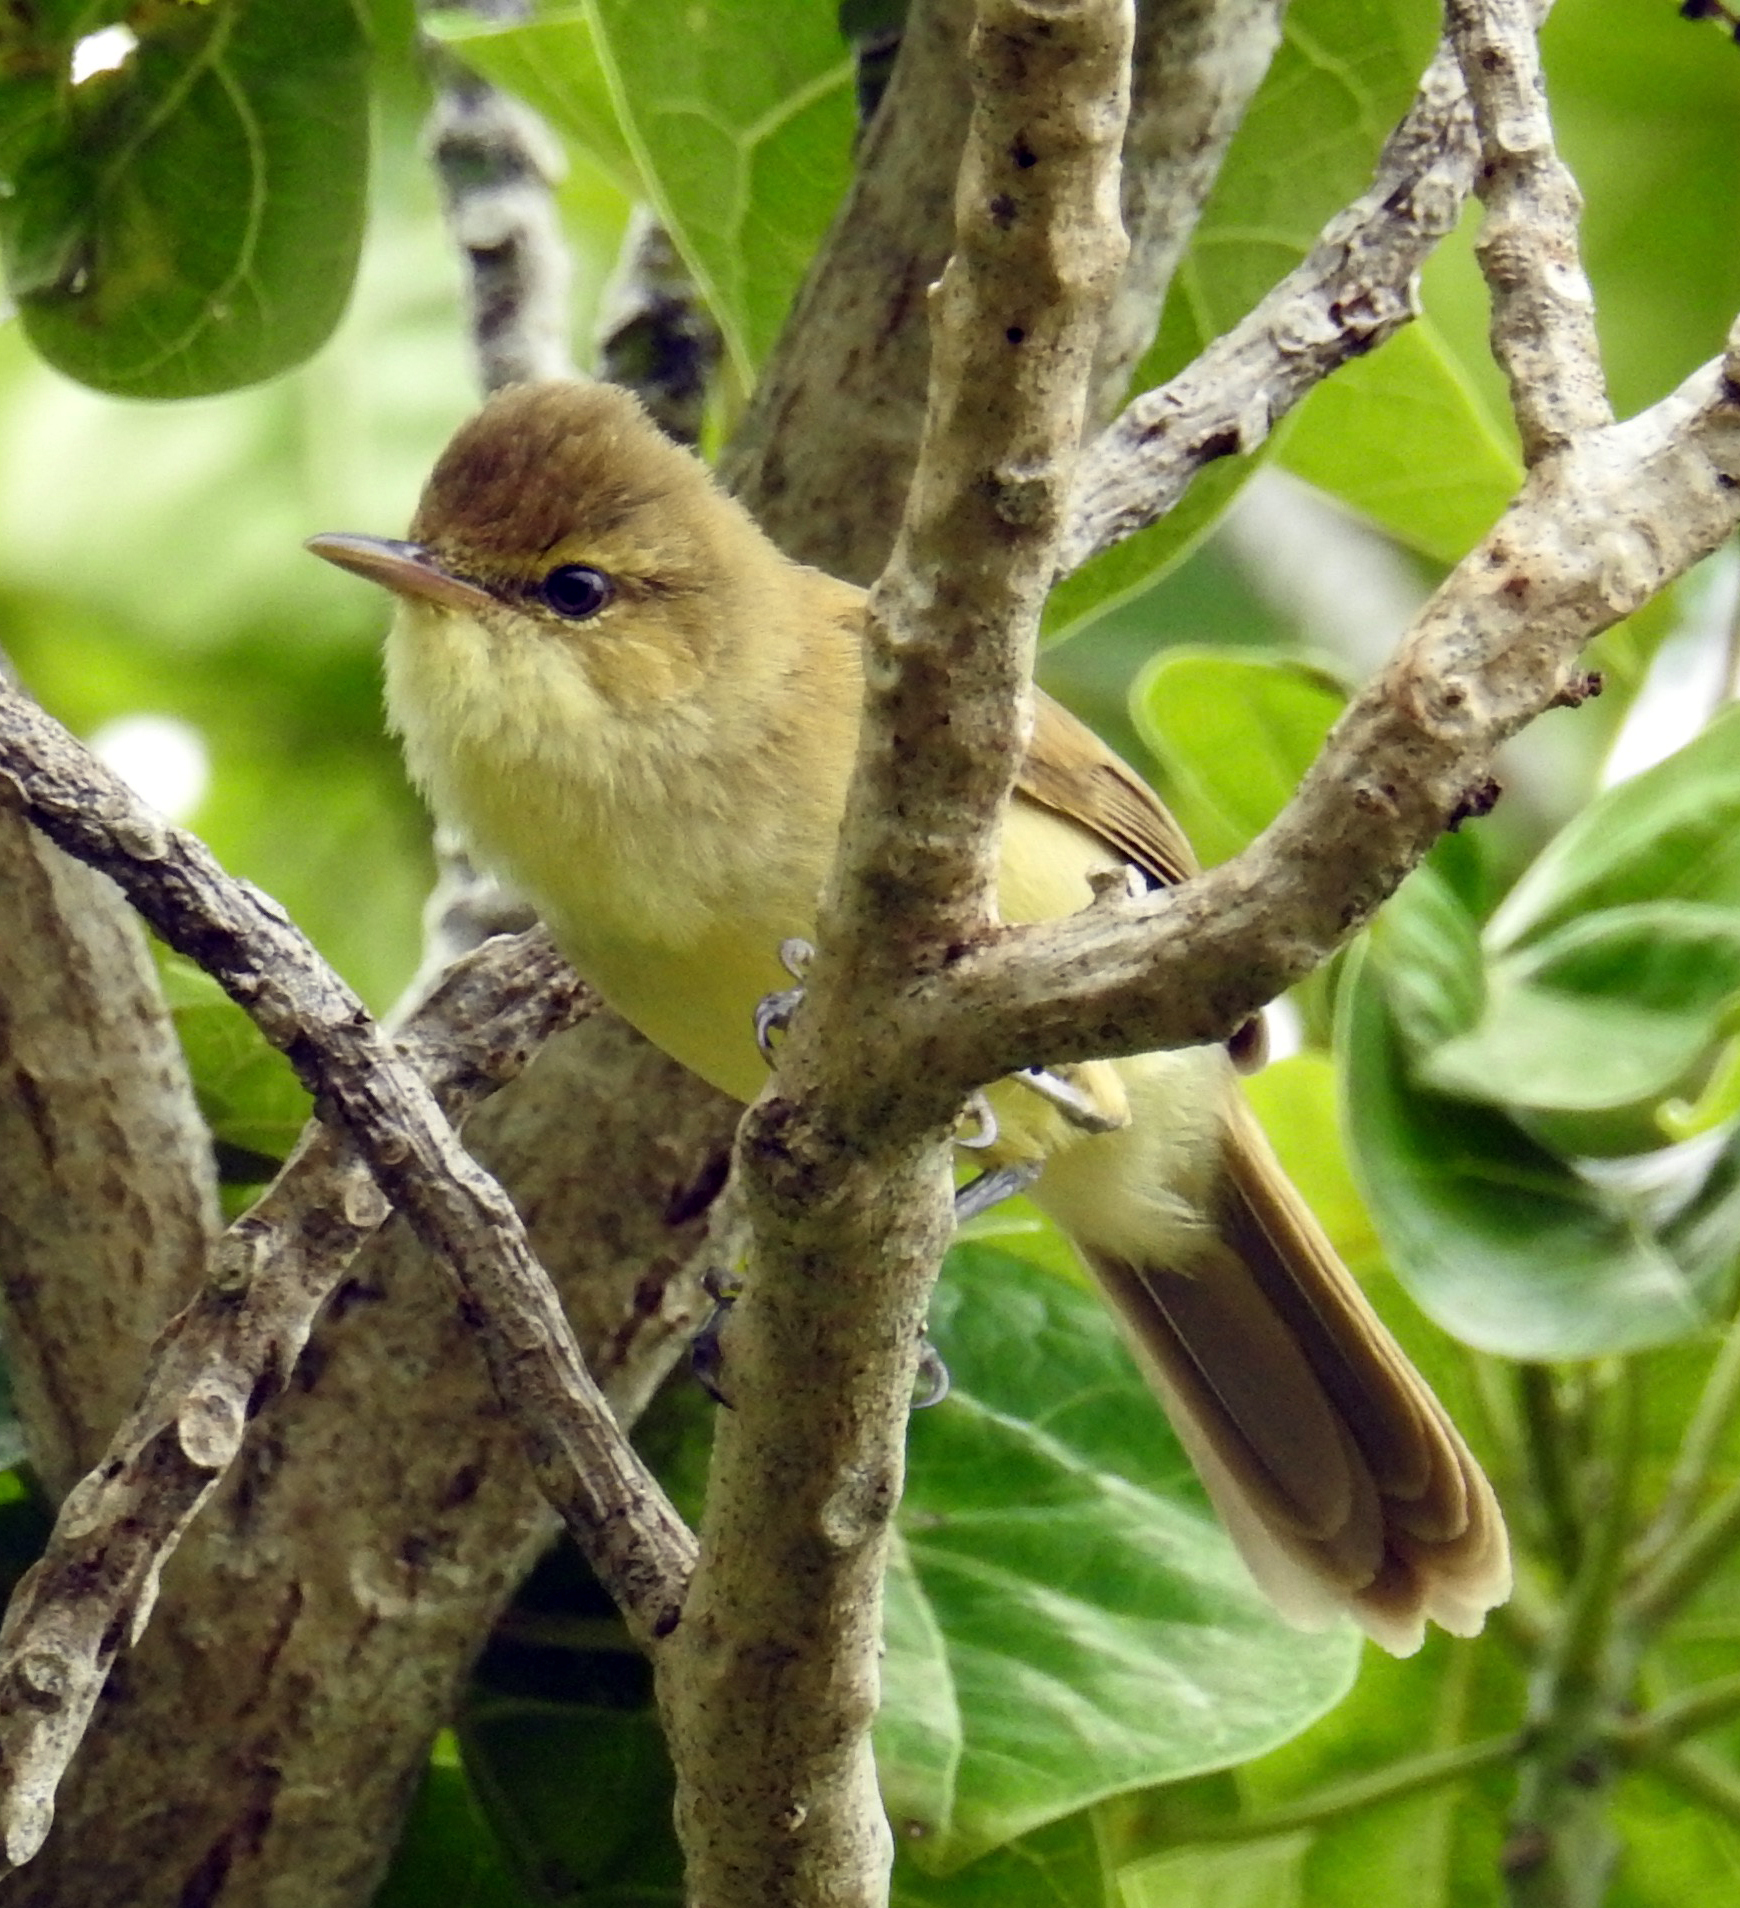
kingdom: Animalia
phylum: Chordata
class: Aves
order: Passeriformes
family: Acrocephalidae
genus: Acrocephalus
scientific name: Acrocephalus kerearako
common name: Cook reed warbler
